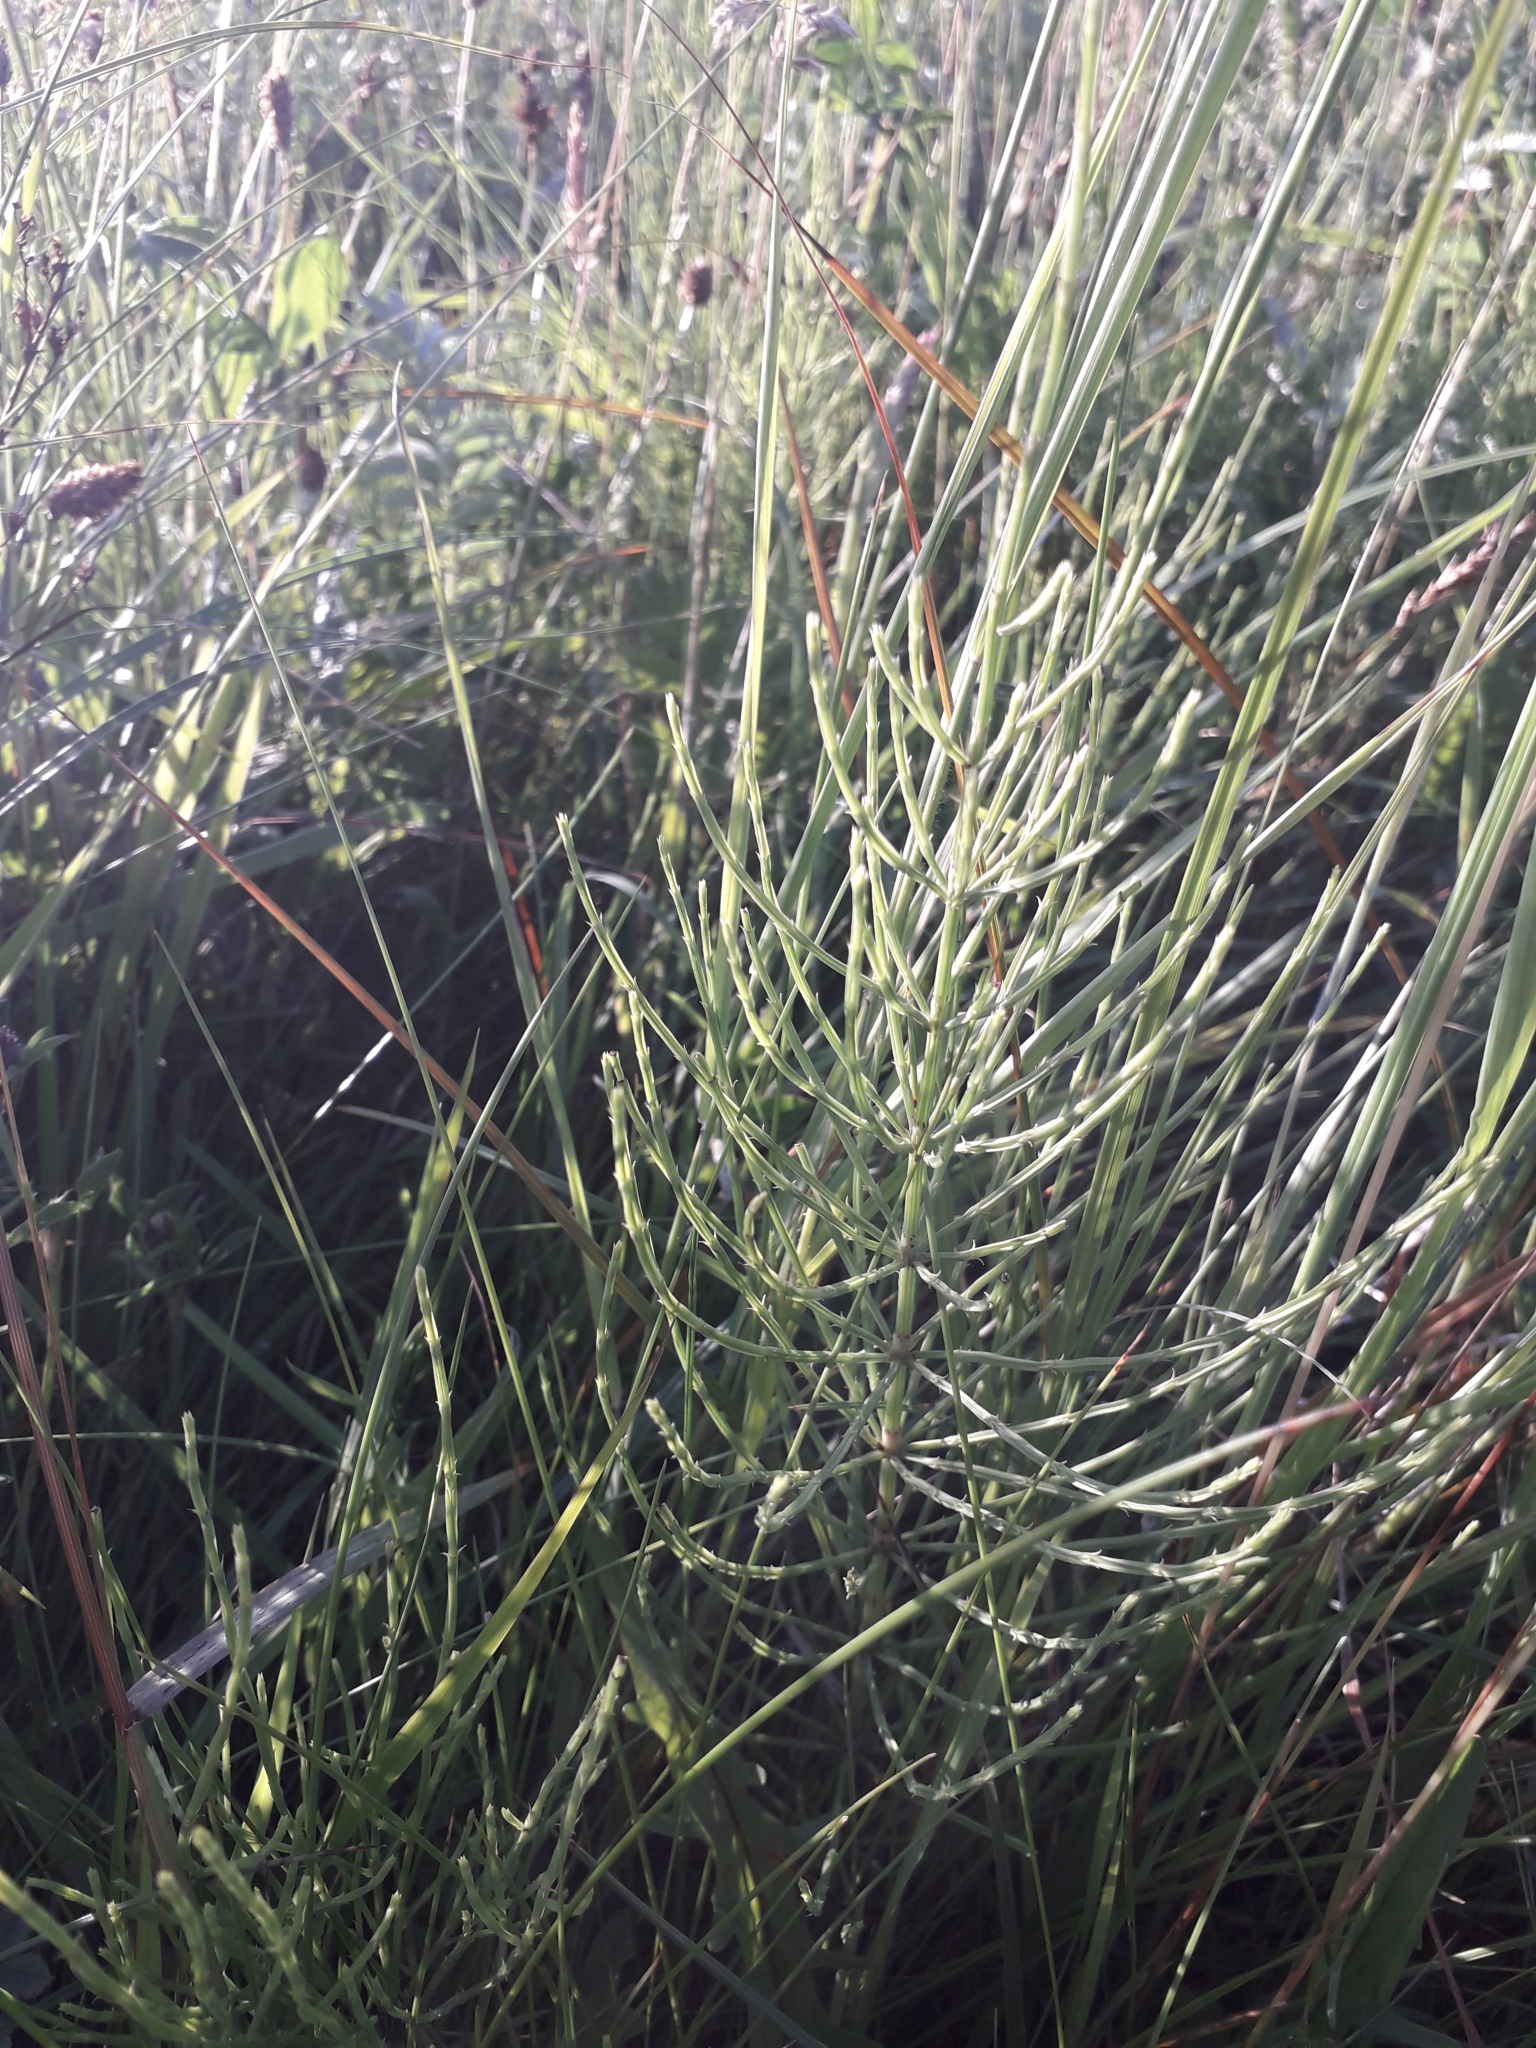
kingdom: Plantae
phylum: Tracheophyta
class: Polypodiopsida
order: Equisetales
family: Equisetaceae
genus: Equisetum
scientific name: Equisetum arvense
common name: Field horsetail
